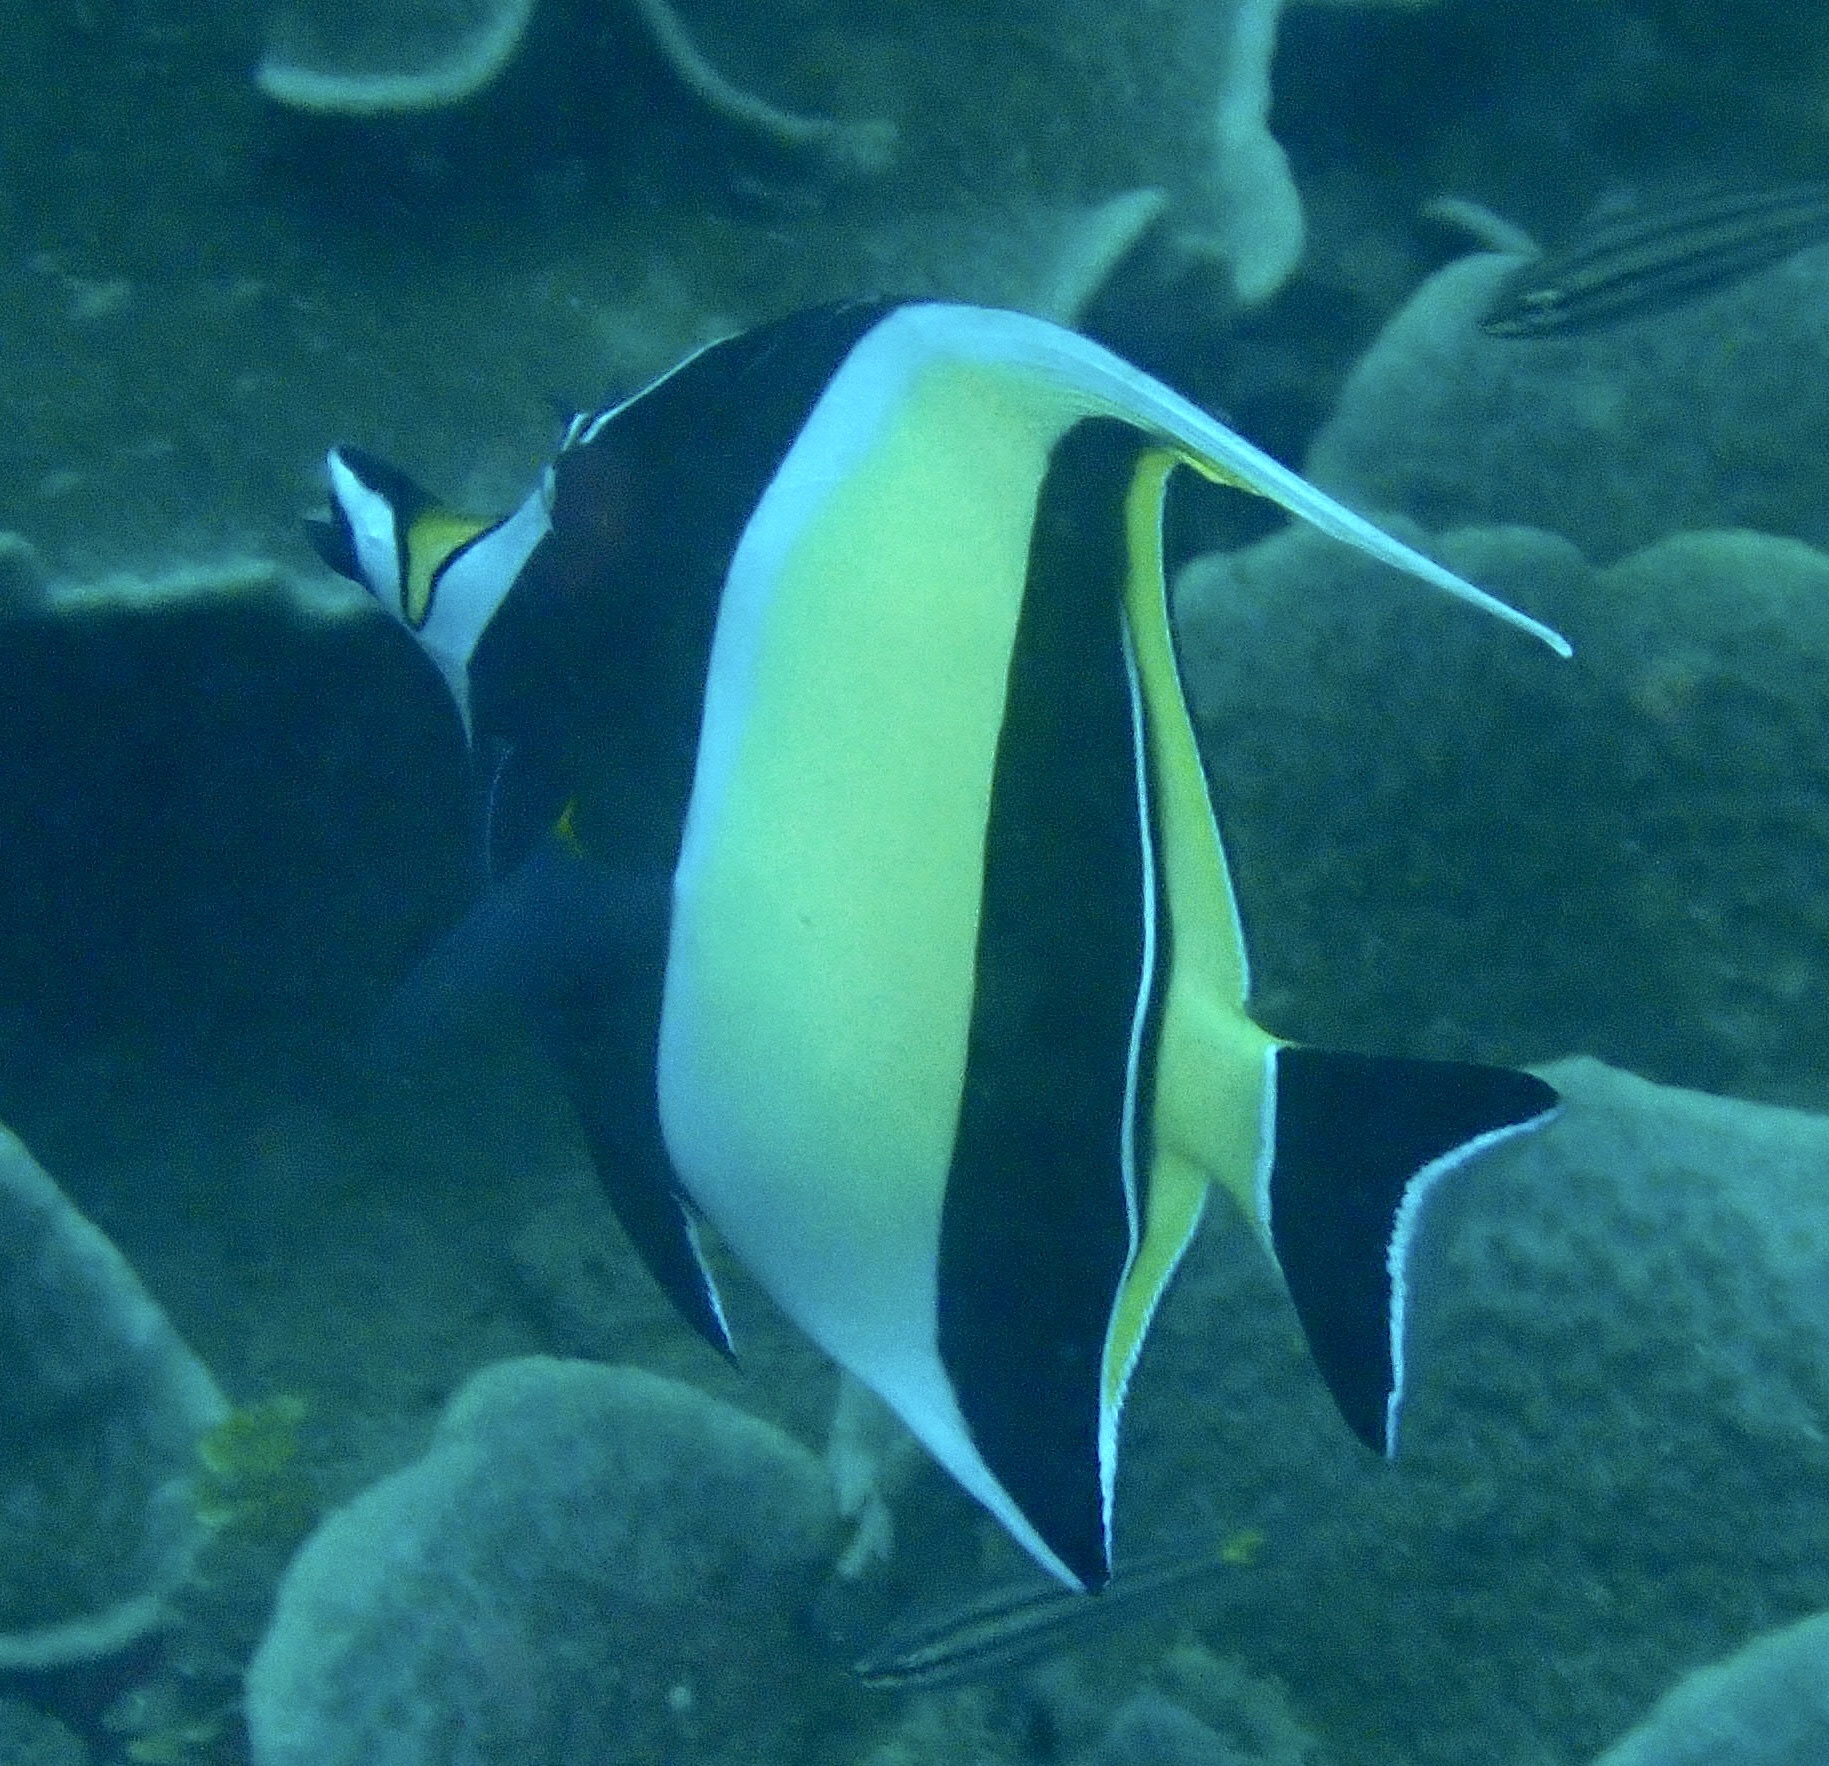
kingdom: Animalia
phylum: Chordata
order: Perciformes
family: Zanclidae
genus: Zanclus
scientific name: Zanclus cornutus
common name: Moorish idol
